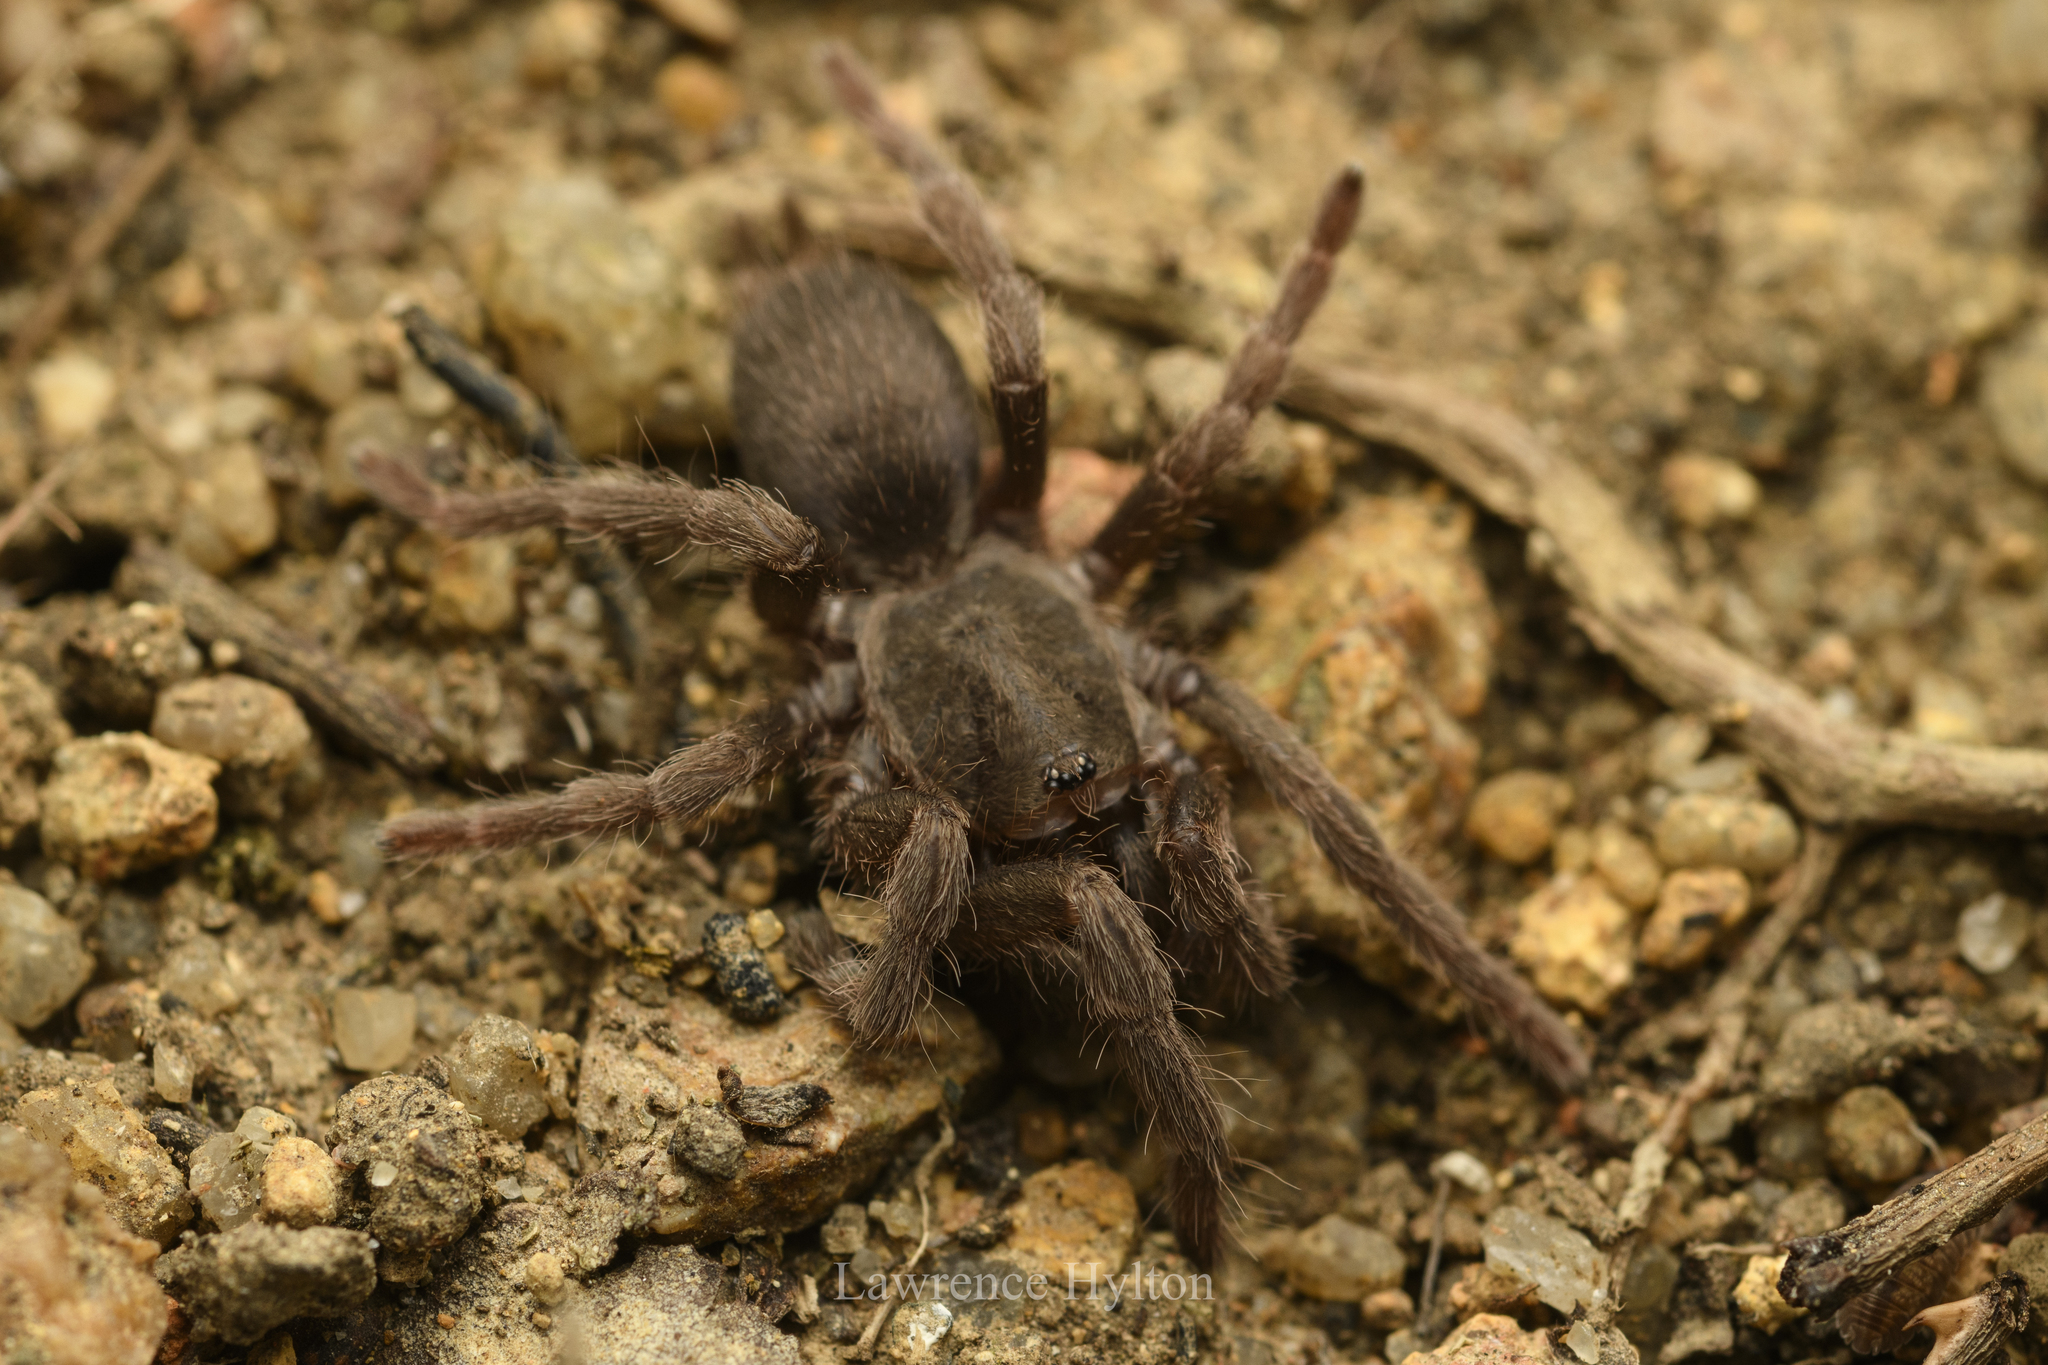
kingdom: Animalia
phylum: Arthropoda
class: Arachnida
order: Araneae
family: Theraphosidae
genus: Phlogiellus
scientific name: Phlogiellus
